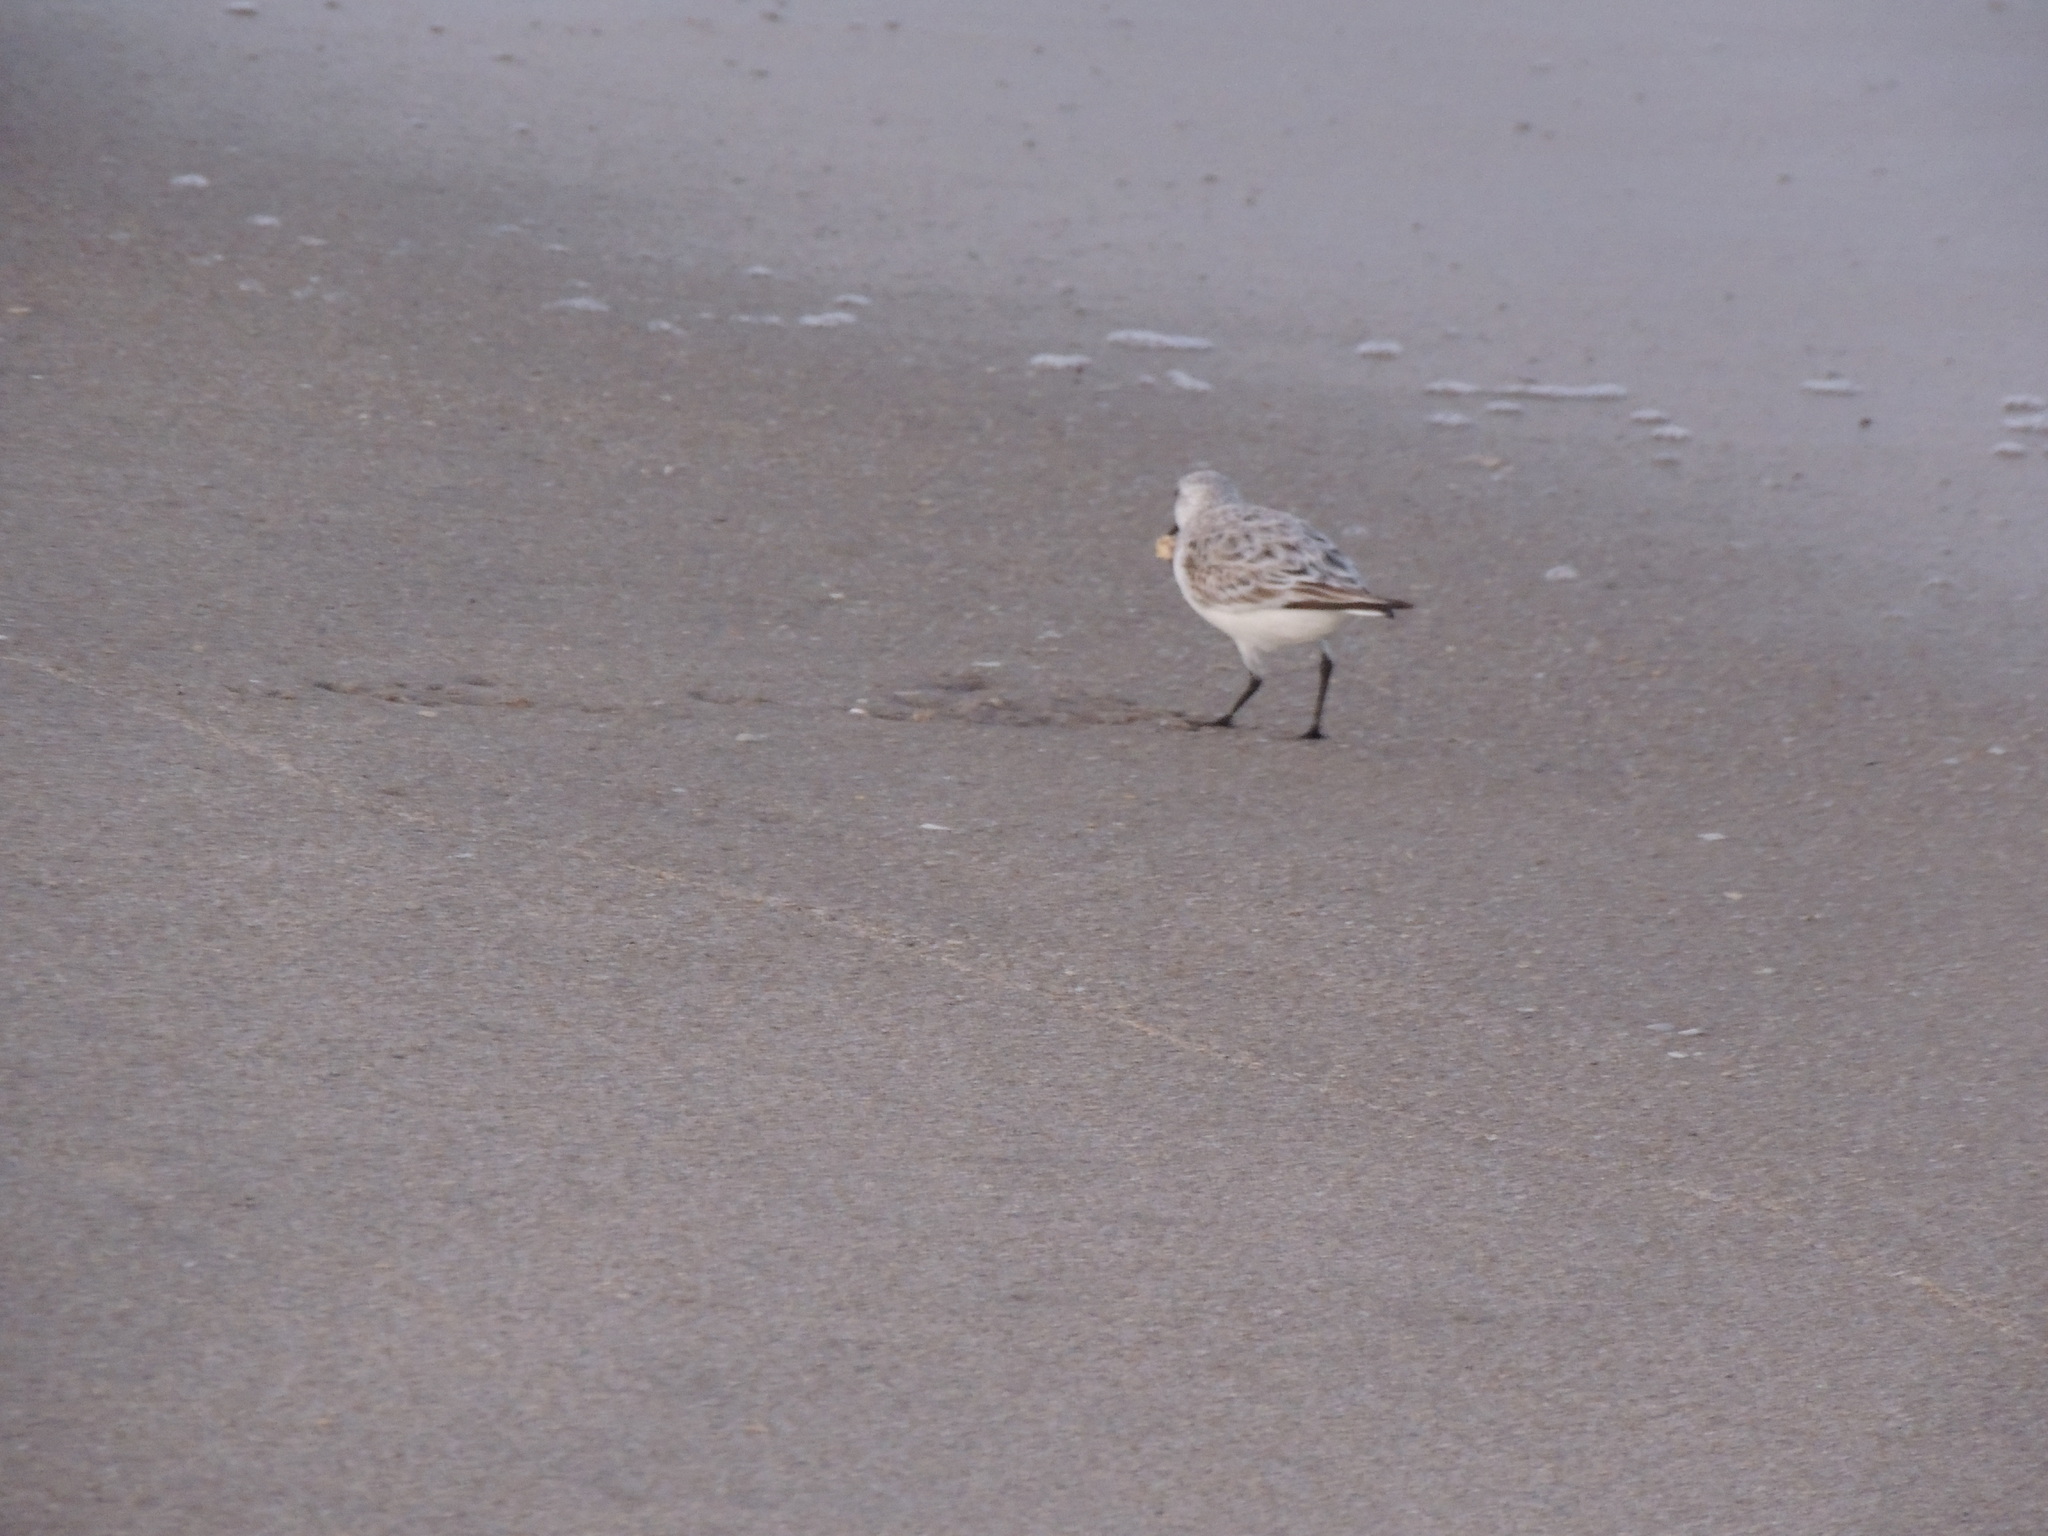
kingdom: Animalia
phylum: Chordata
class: Aves
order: Charadriiformes
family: Scolopacidae
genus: Calidris
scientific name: Calidris alba
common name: Sanderling
